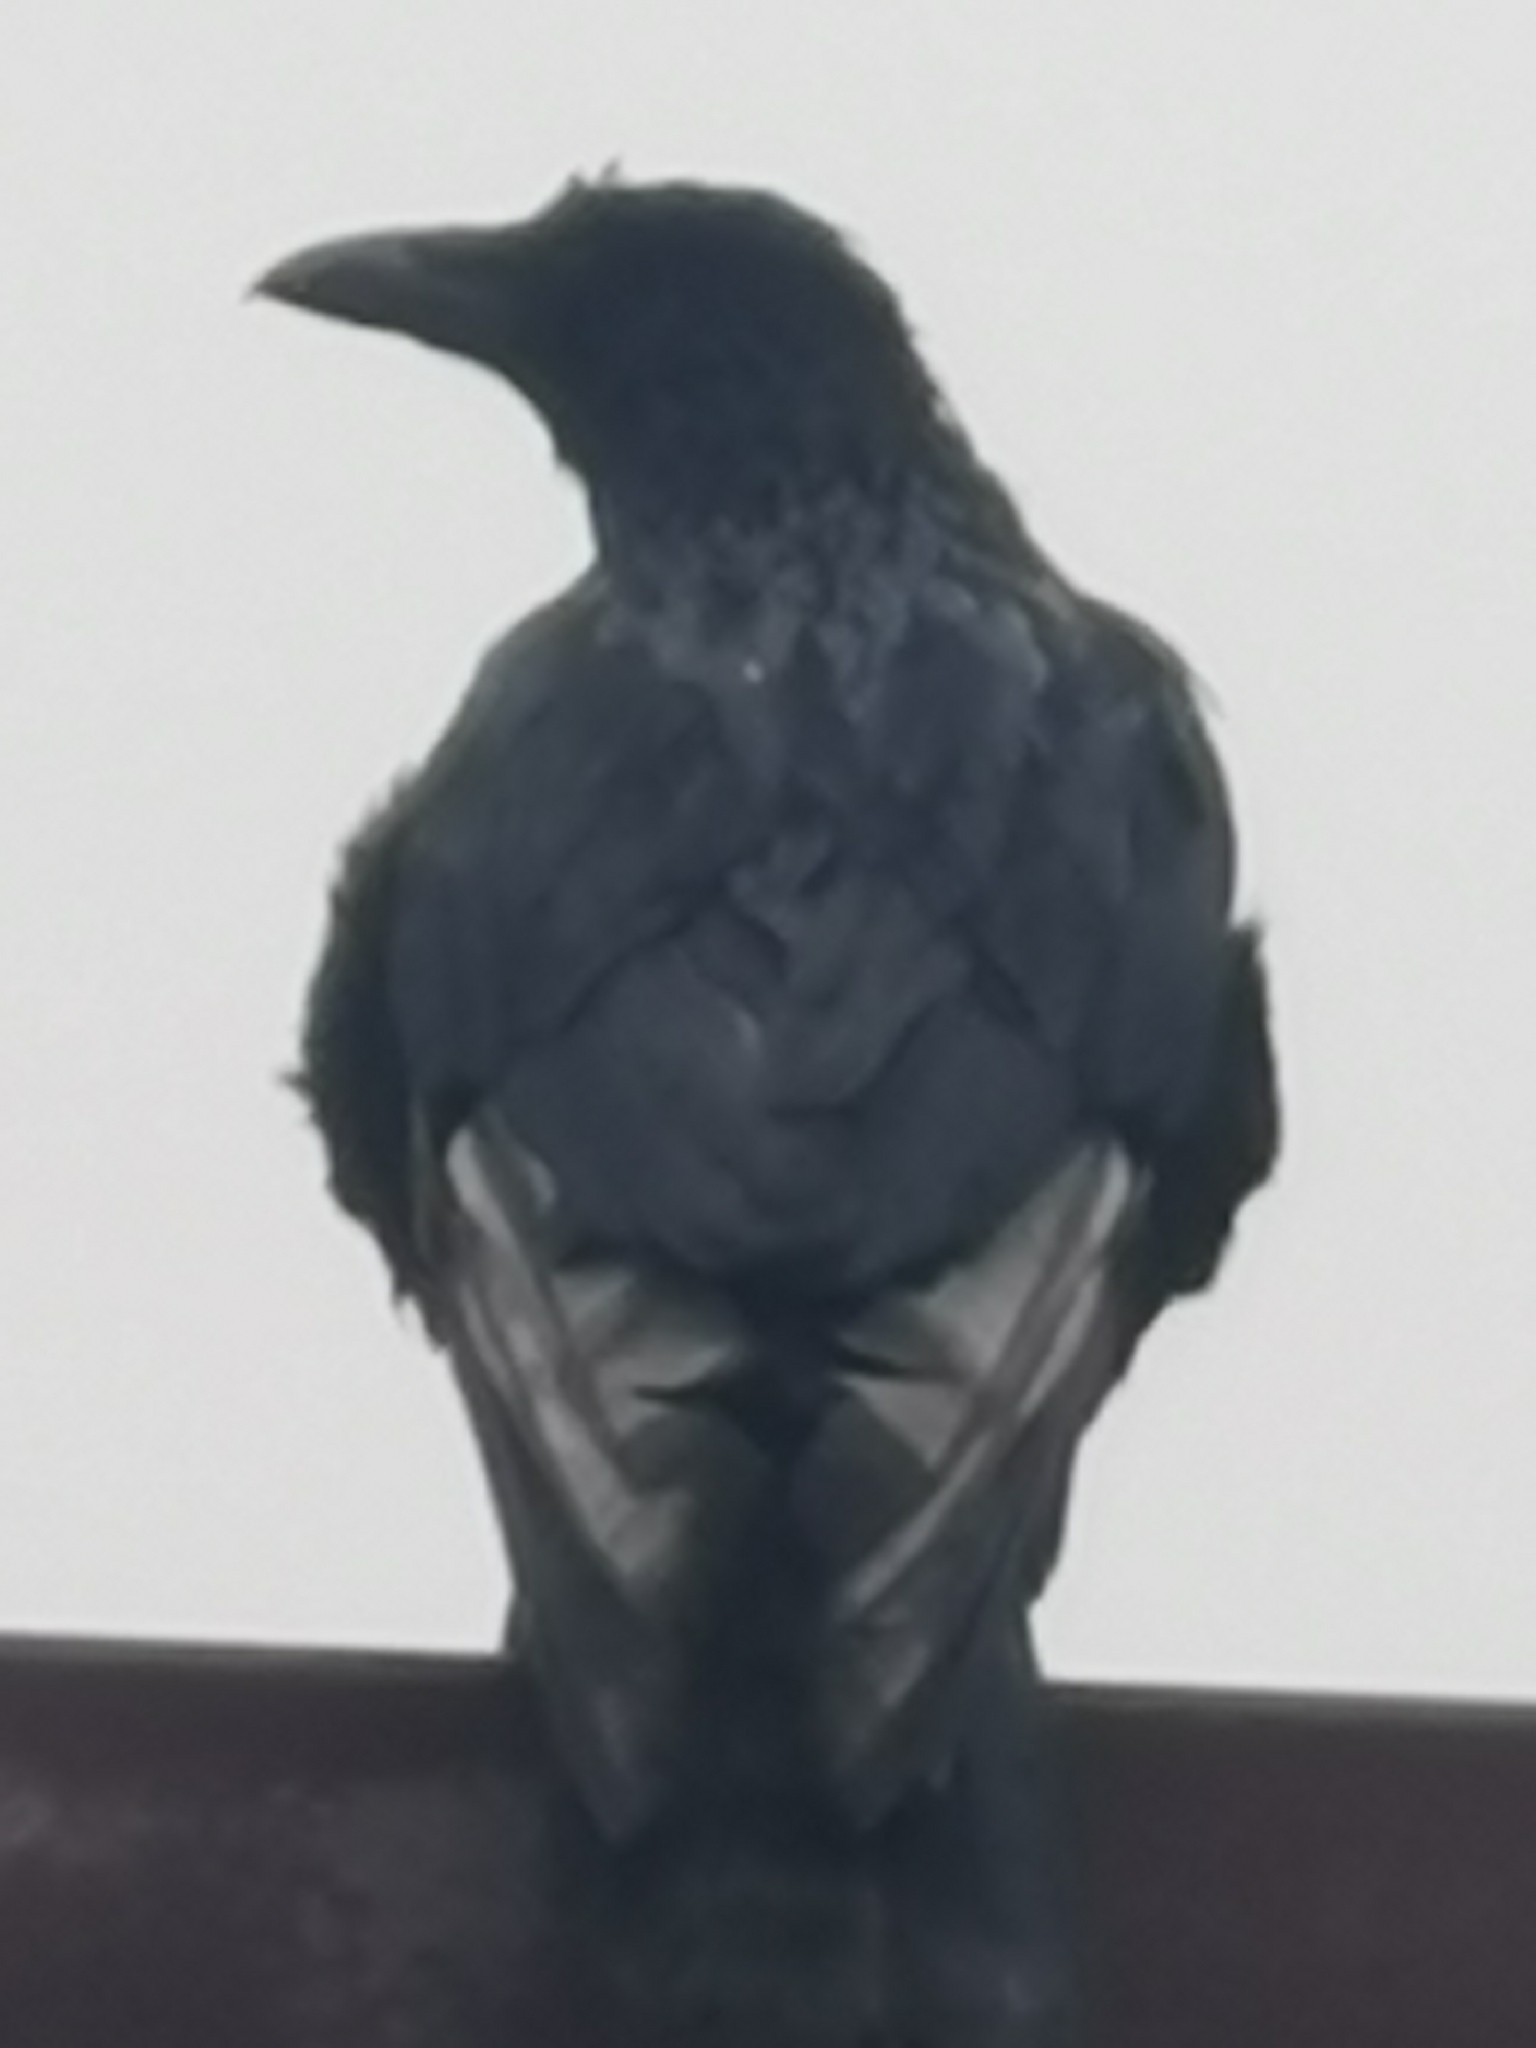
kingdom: Animalia
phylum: Chordata
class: Aves
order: Passeriformes
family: Corvidae
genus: Corvus
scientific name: Corvus corone
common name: Carrion crow
